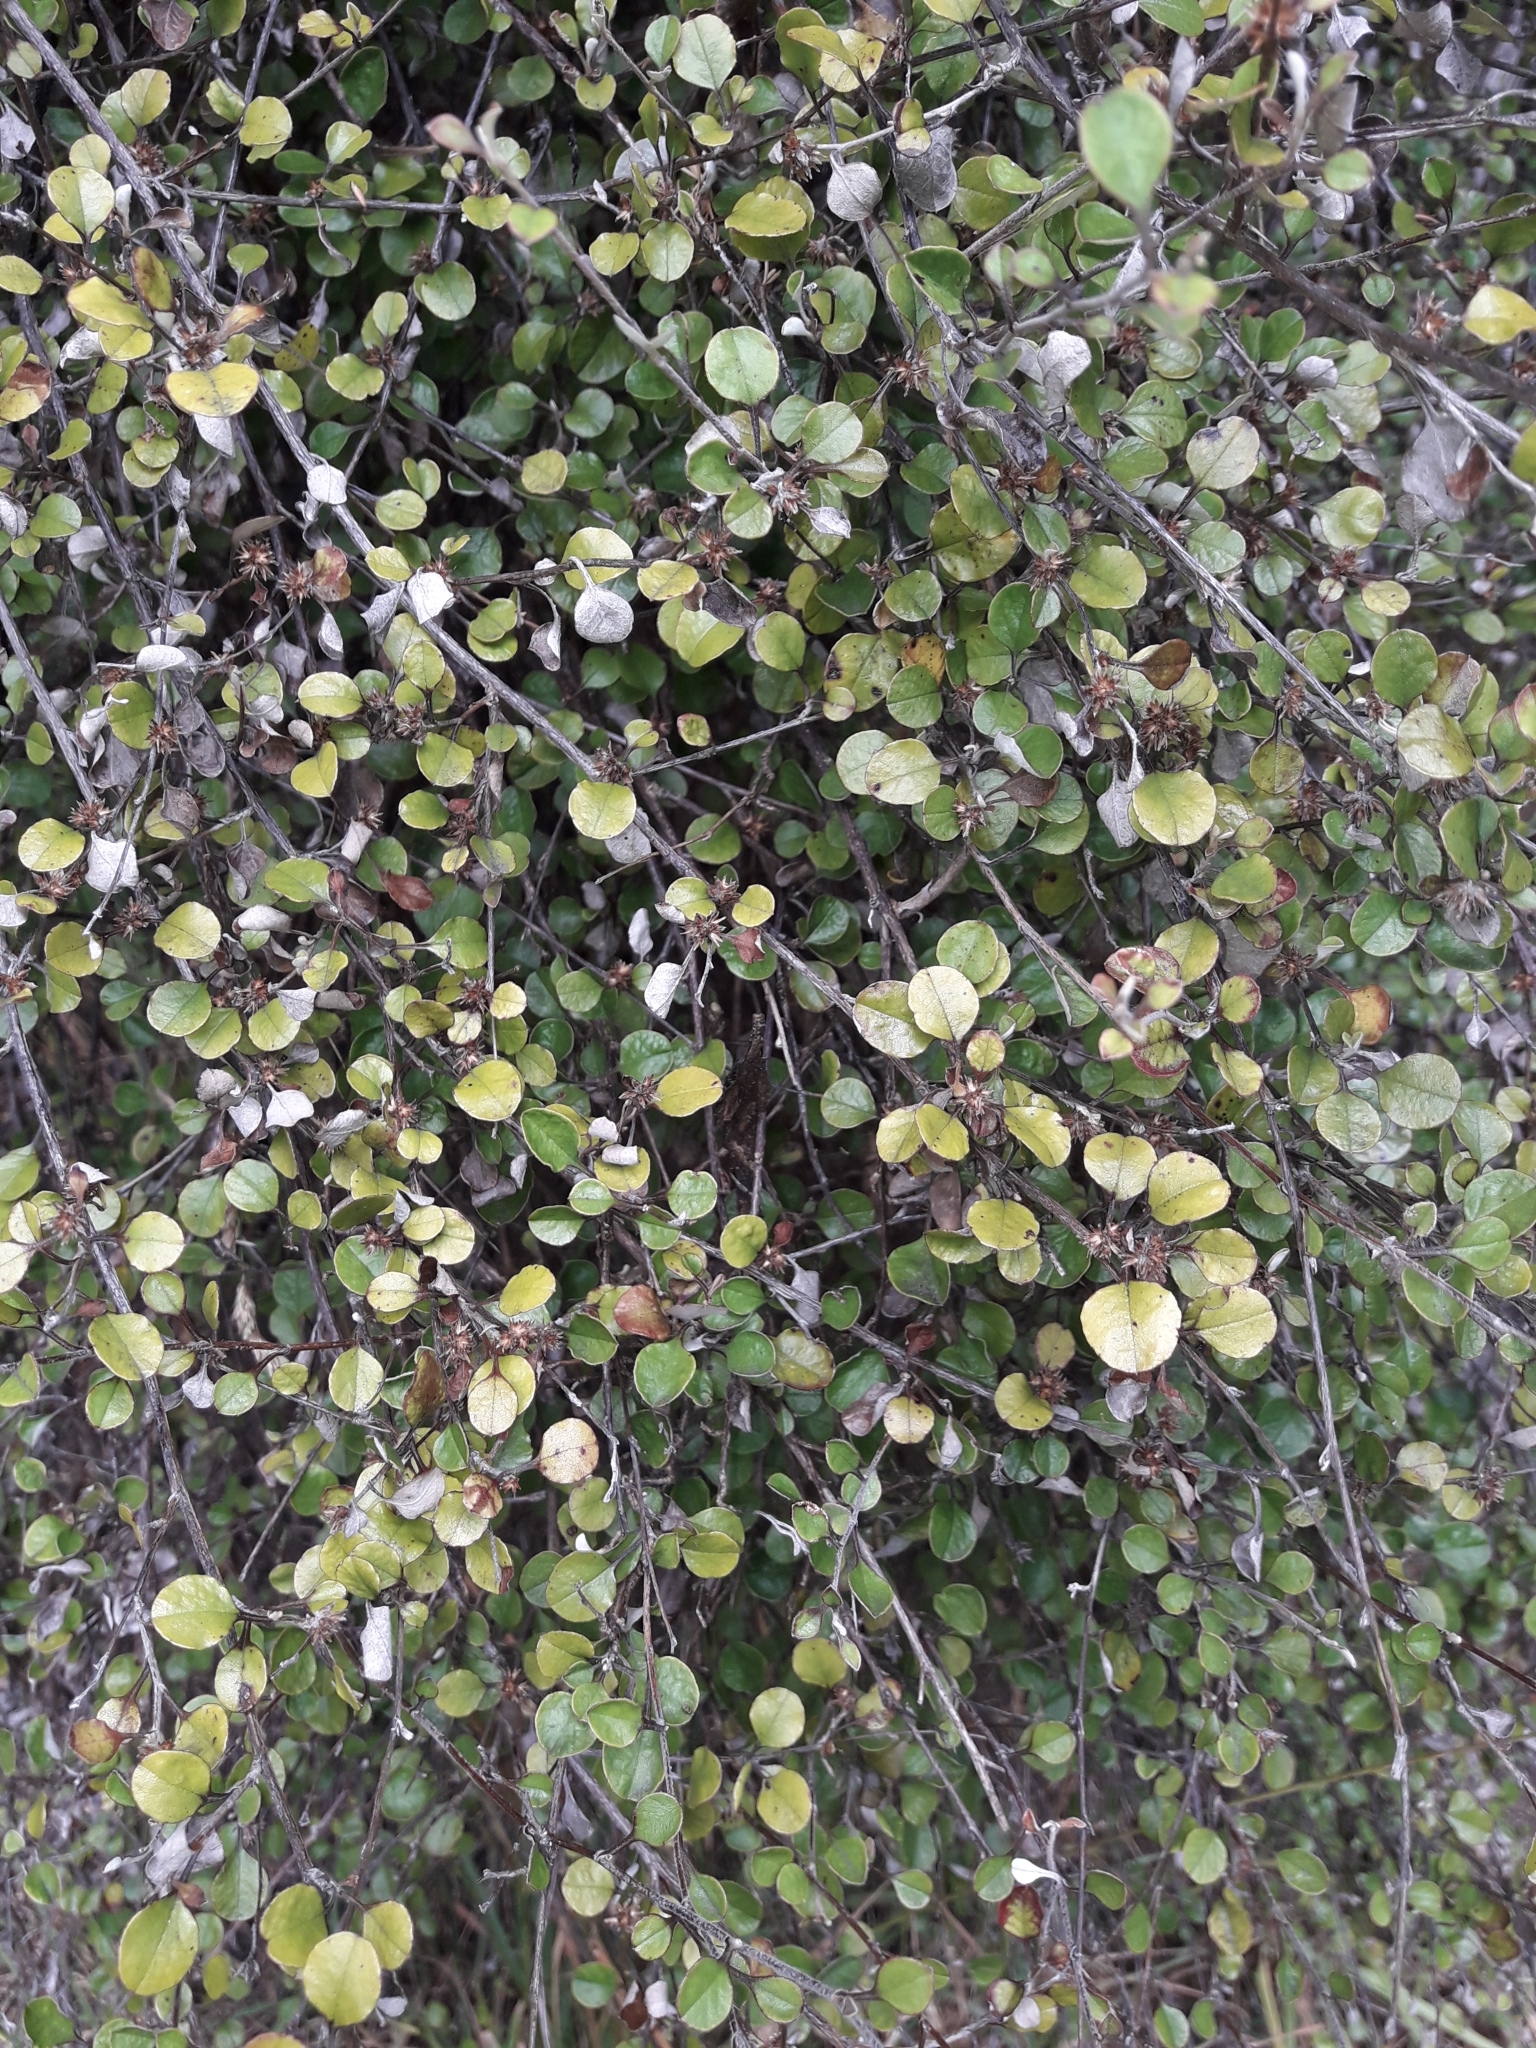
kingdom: Plantae
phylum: Tracheophyta
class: Magnoliopsida
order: Asterales
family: Asteraceae
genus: Ozothamnus
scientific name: Ozothamnus glomeratus
